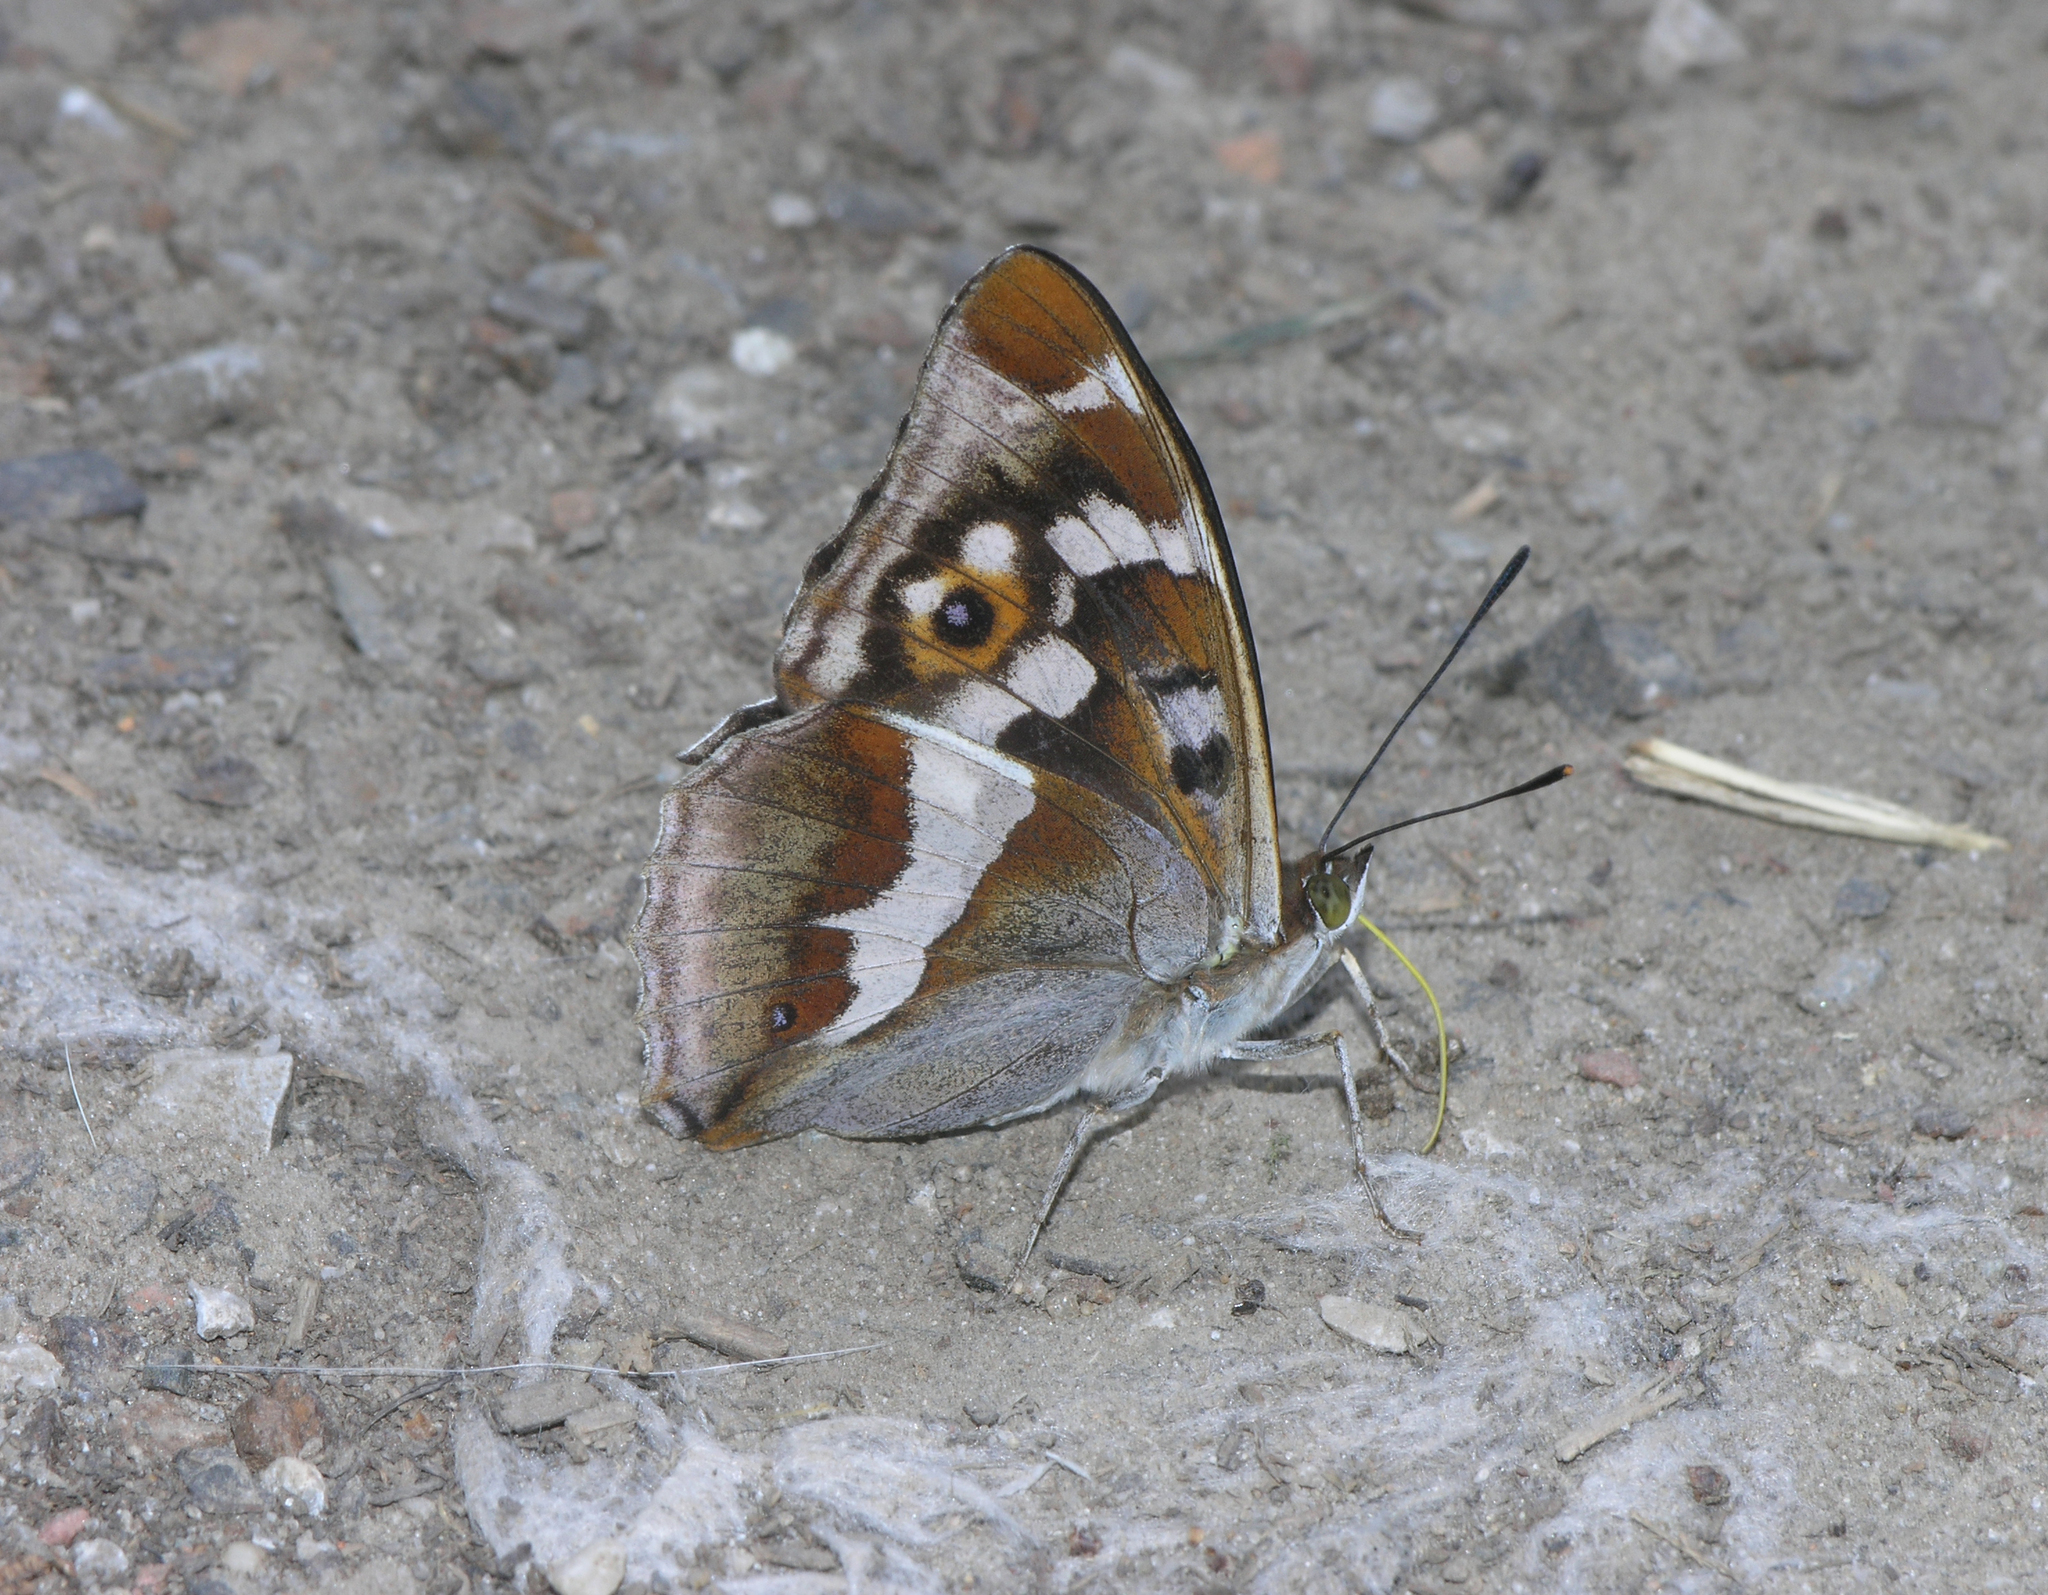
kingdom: Animalia
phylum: Arthropoda
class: Insecta
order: Lepidoptera
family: Nymphalidae
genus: Apatura
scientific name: Apatura iris
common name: Purple emperor
